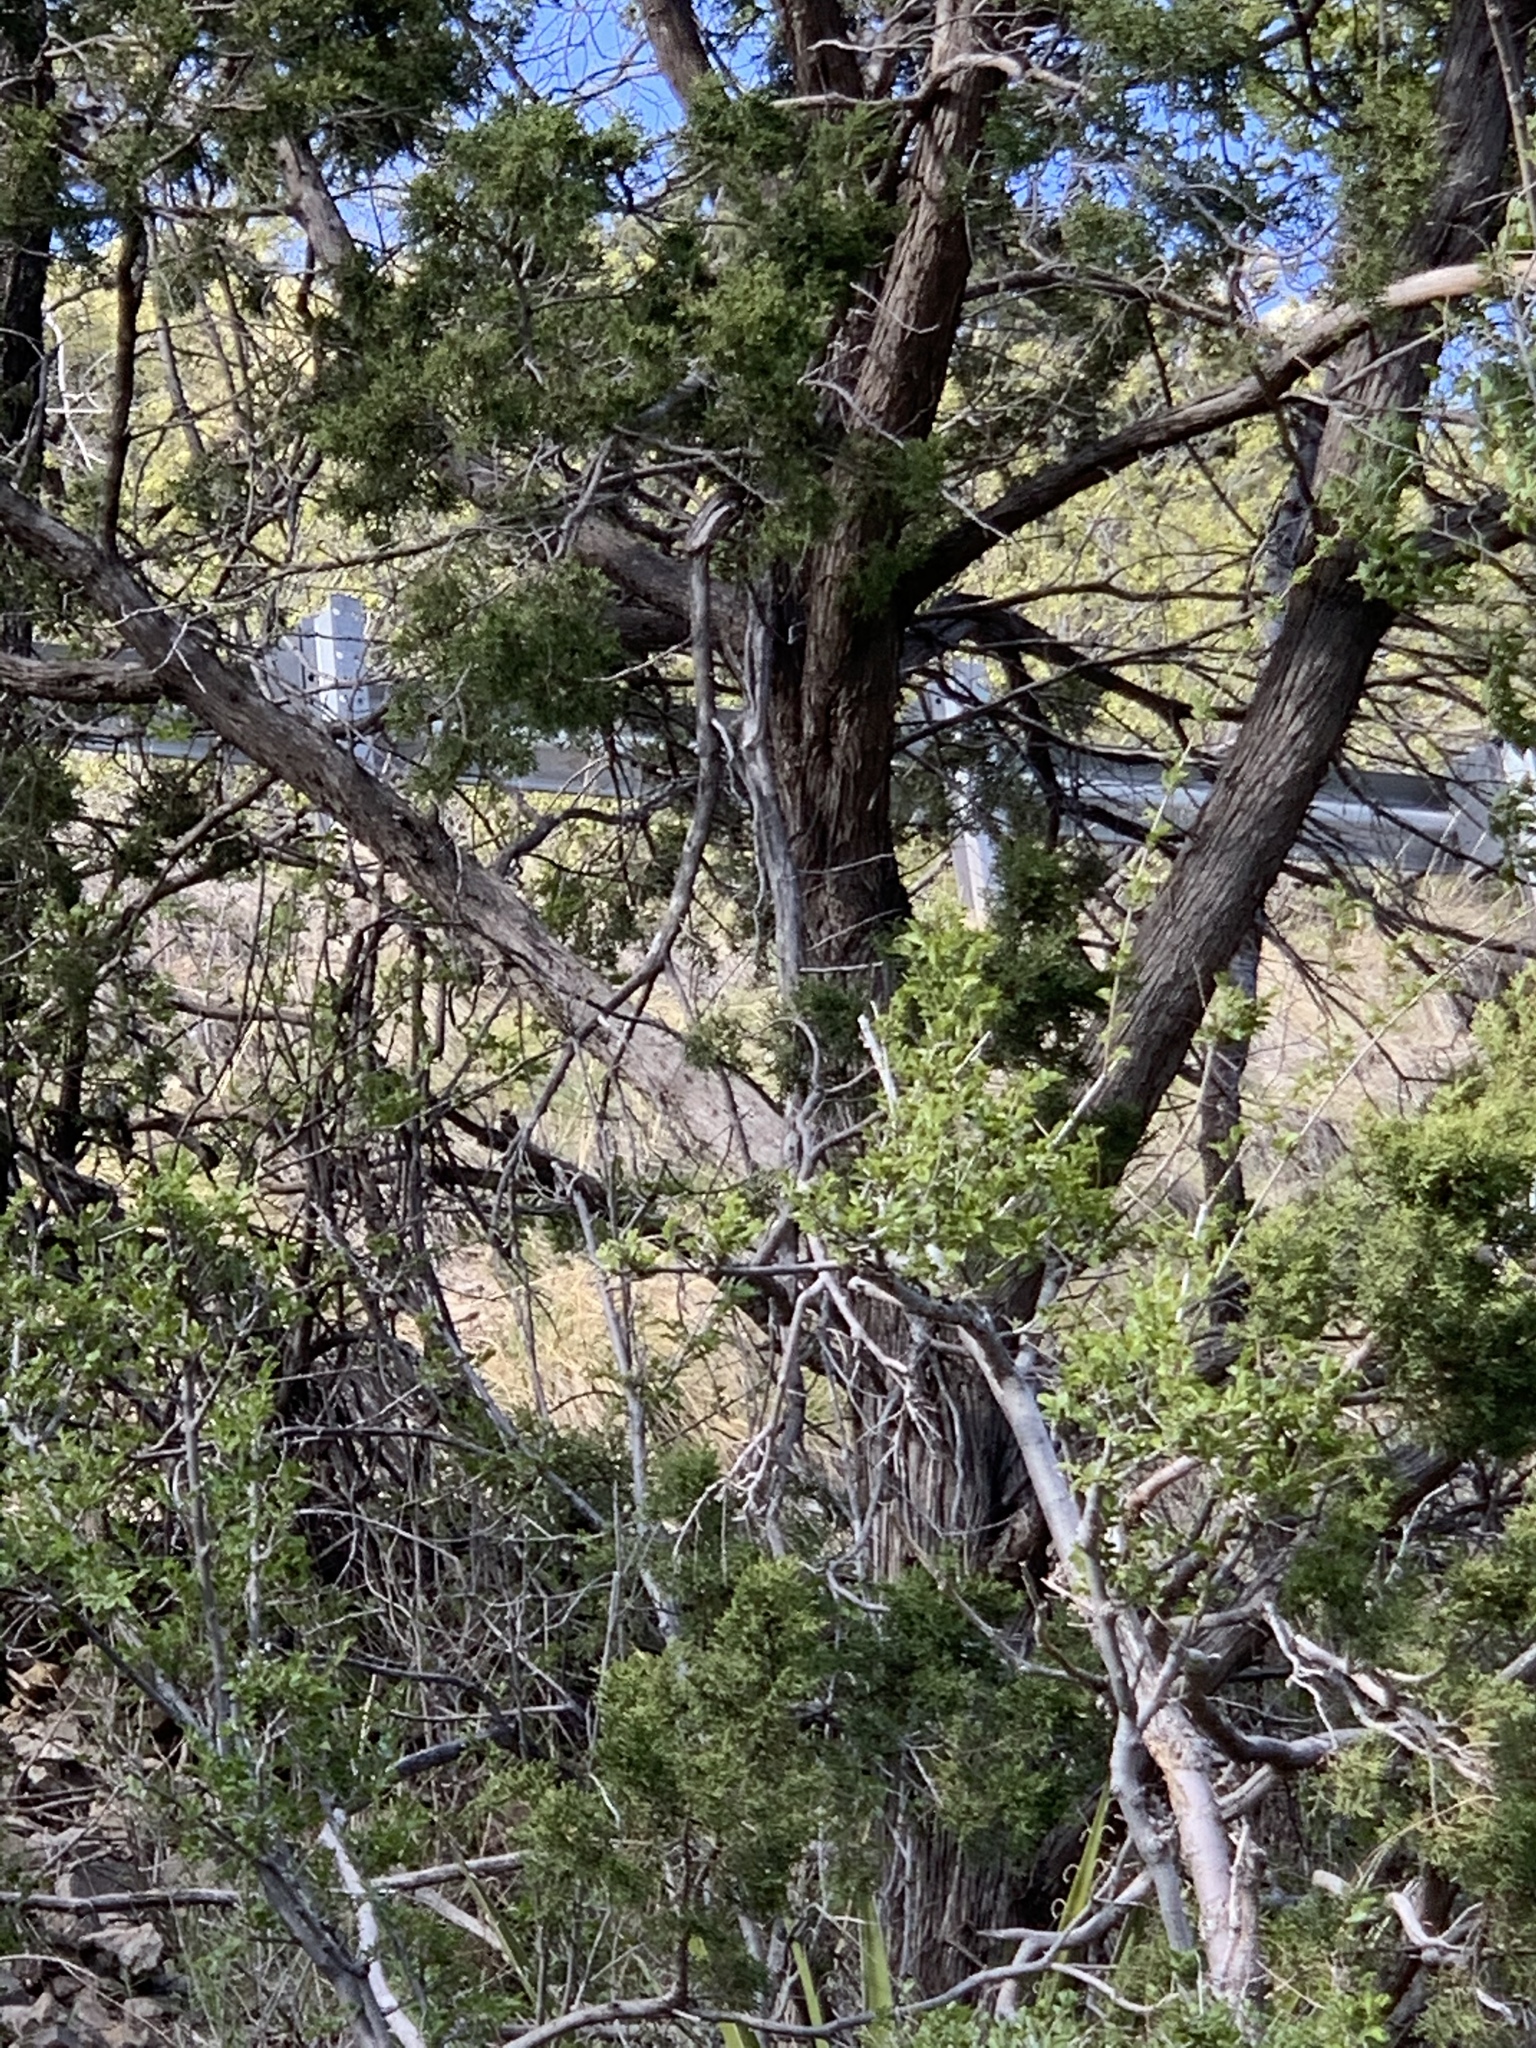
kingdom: Plantae
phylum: Tracheophyta
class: Pinopsida
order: Pinales
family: Cupressaceae
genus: Juniperus
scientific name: Juniperus monosperma
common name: One-seed juniper
